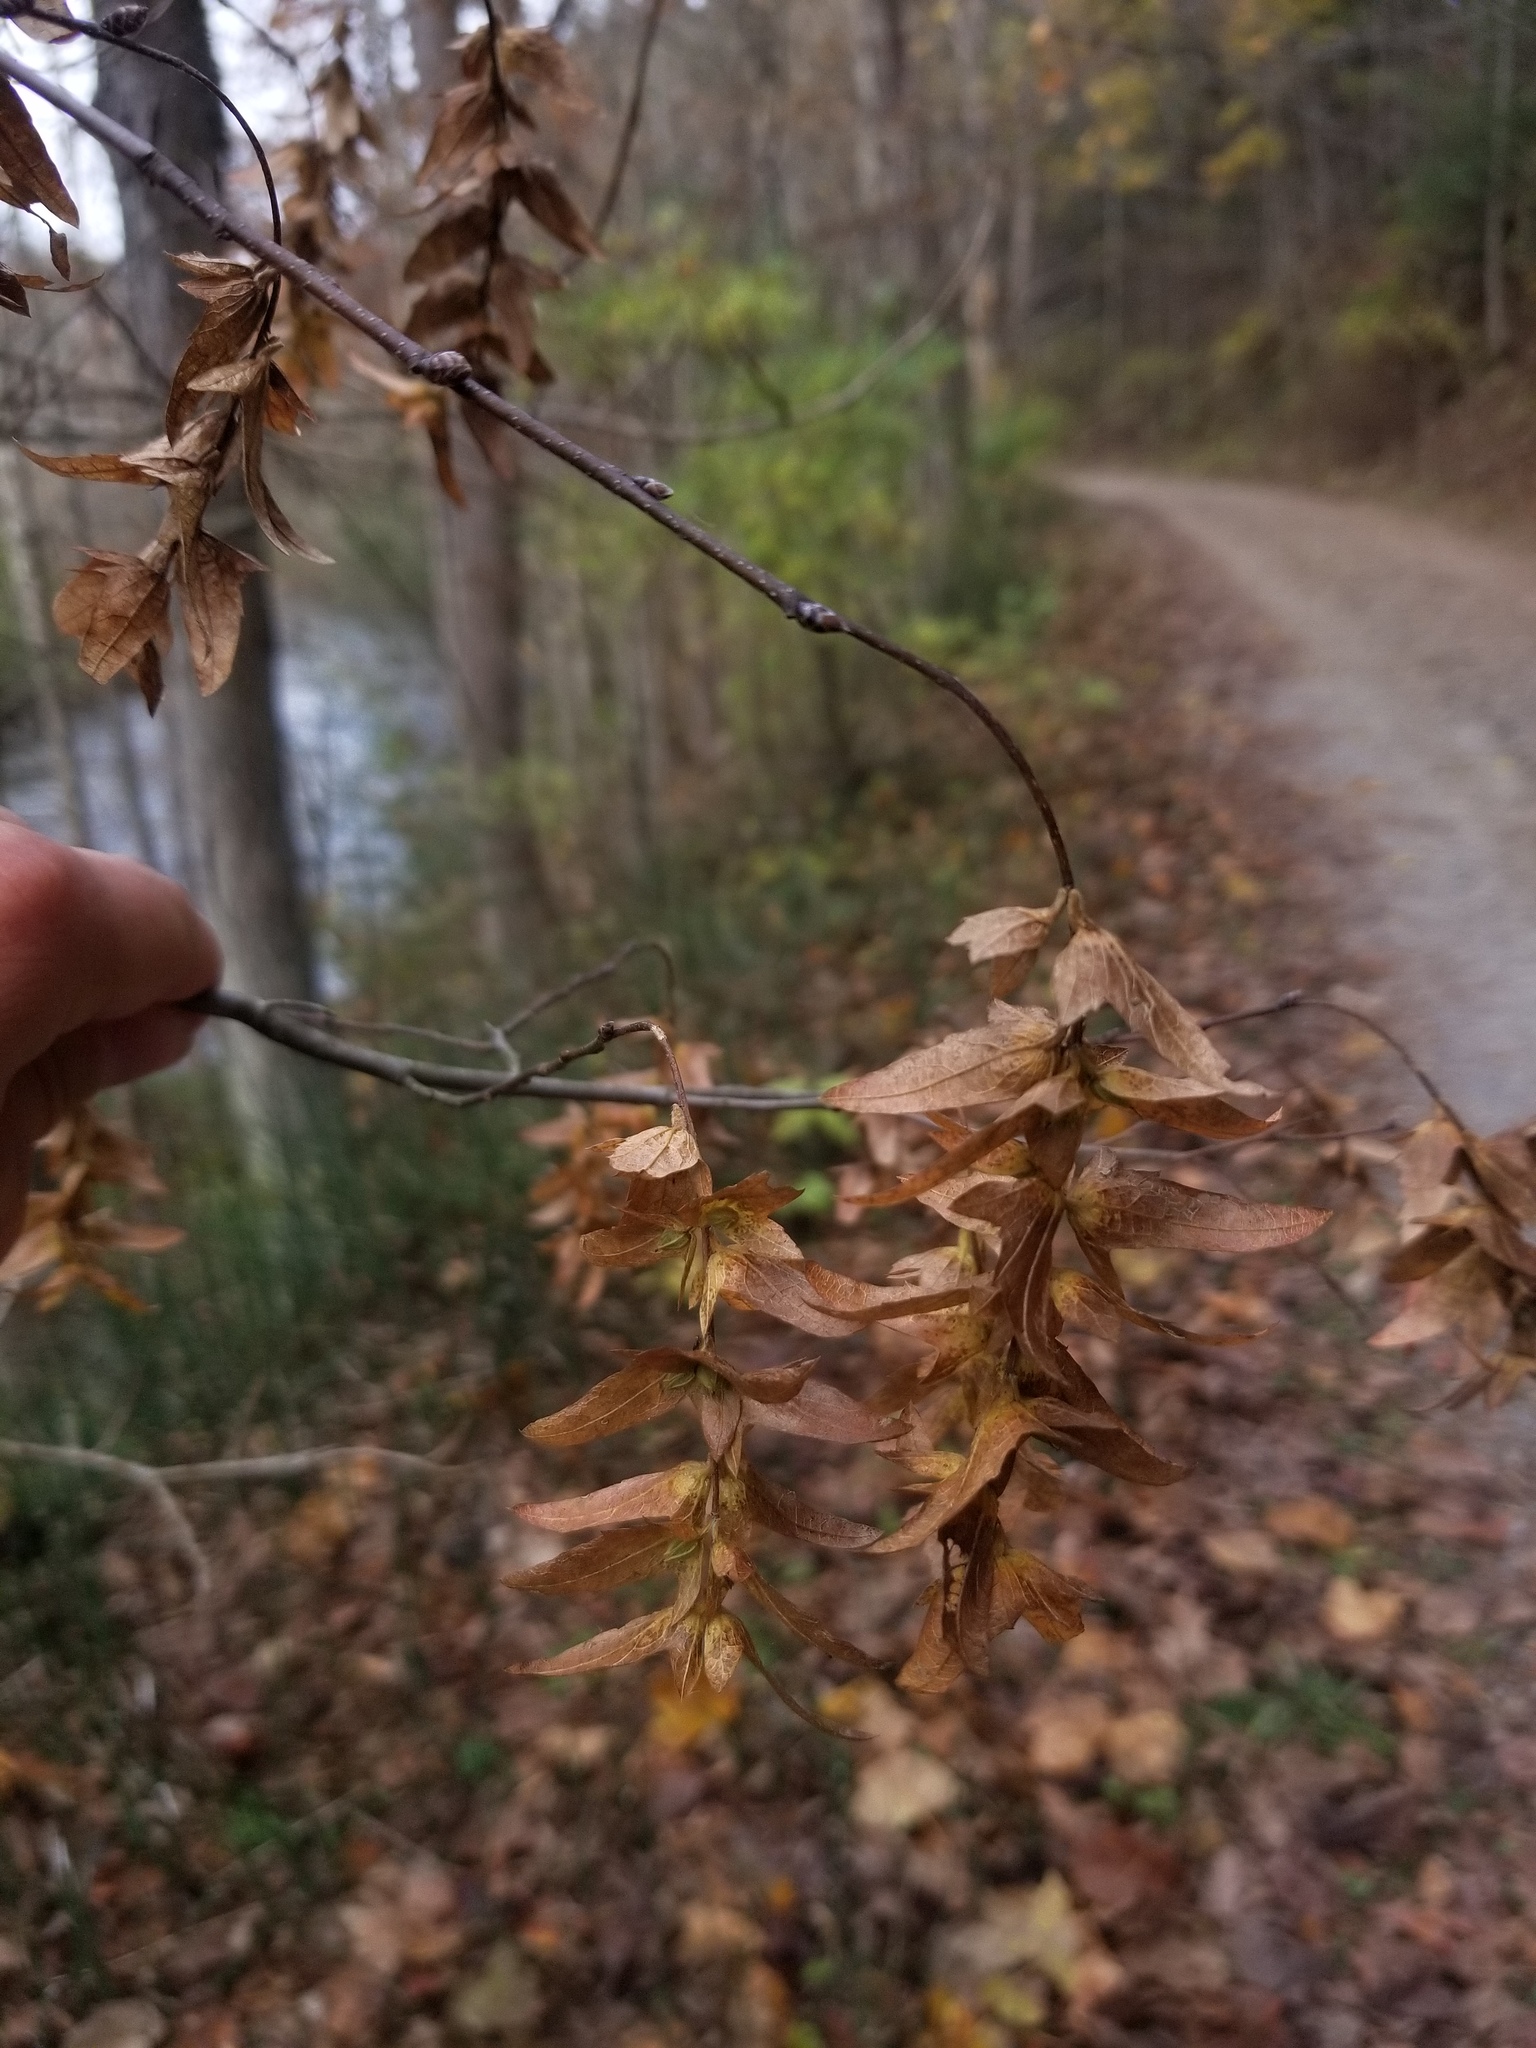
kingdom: Plantae
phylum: Tracheophyta
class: Magnoliopsida
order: Fagales
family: Betulaceae
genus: Carpinus
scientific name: Carpinus caroliniana
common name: American hornbeam
